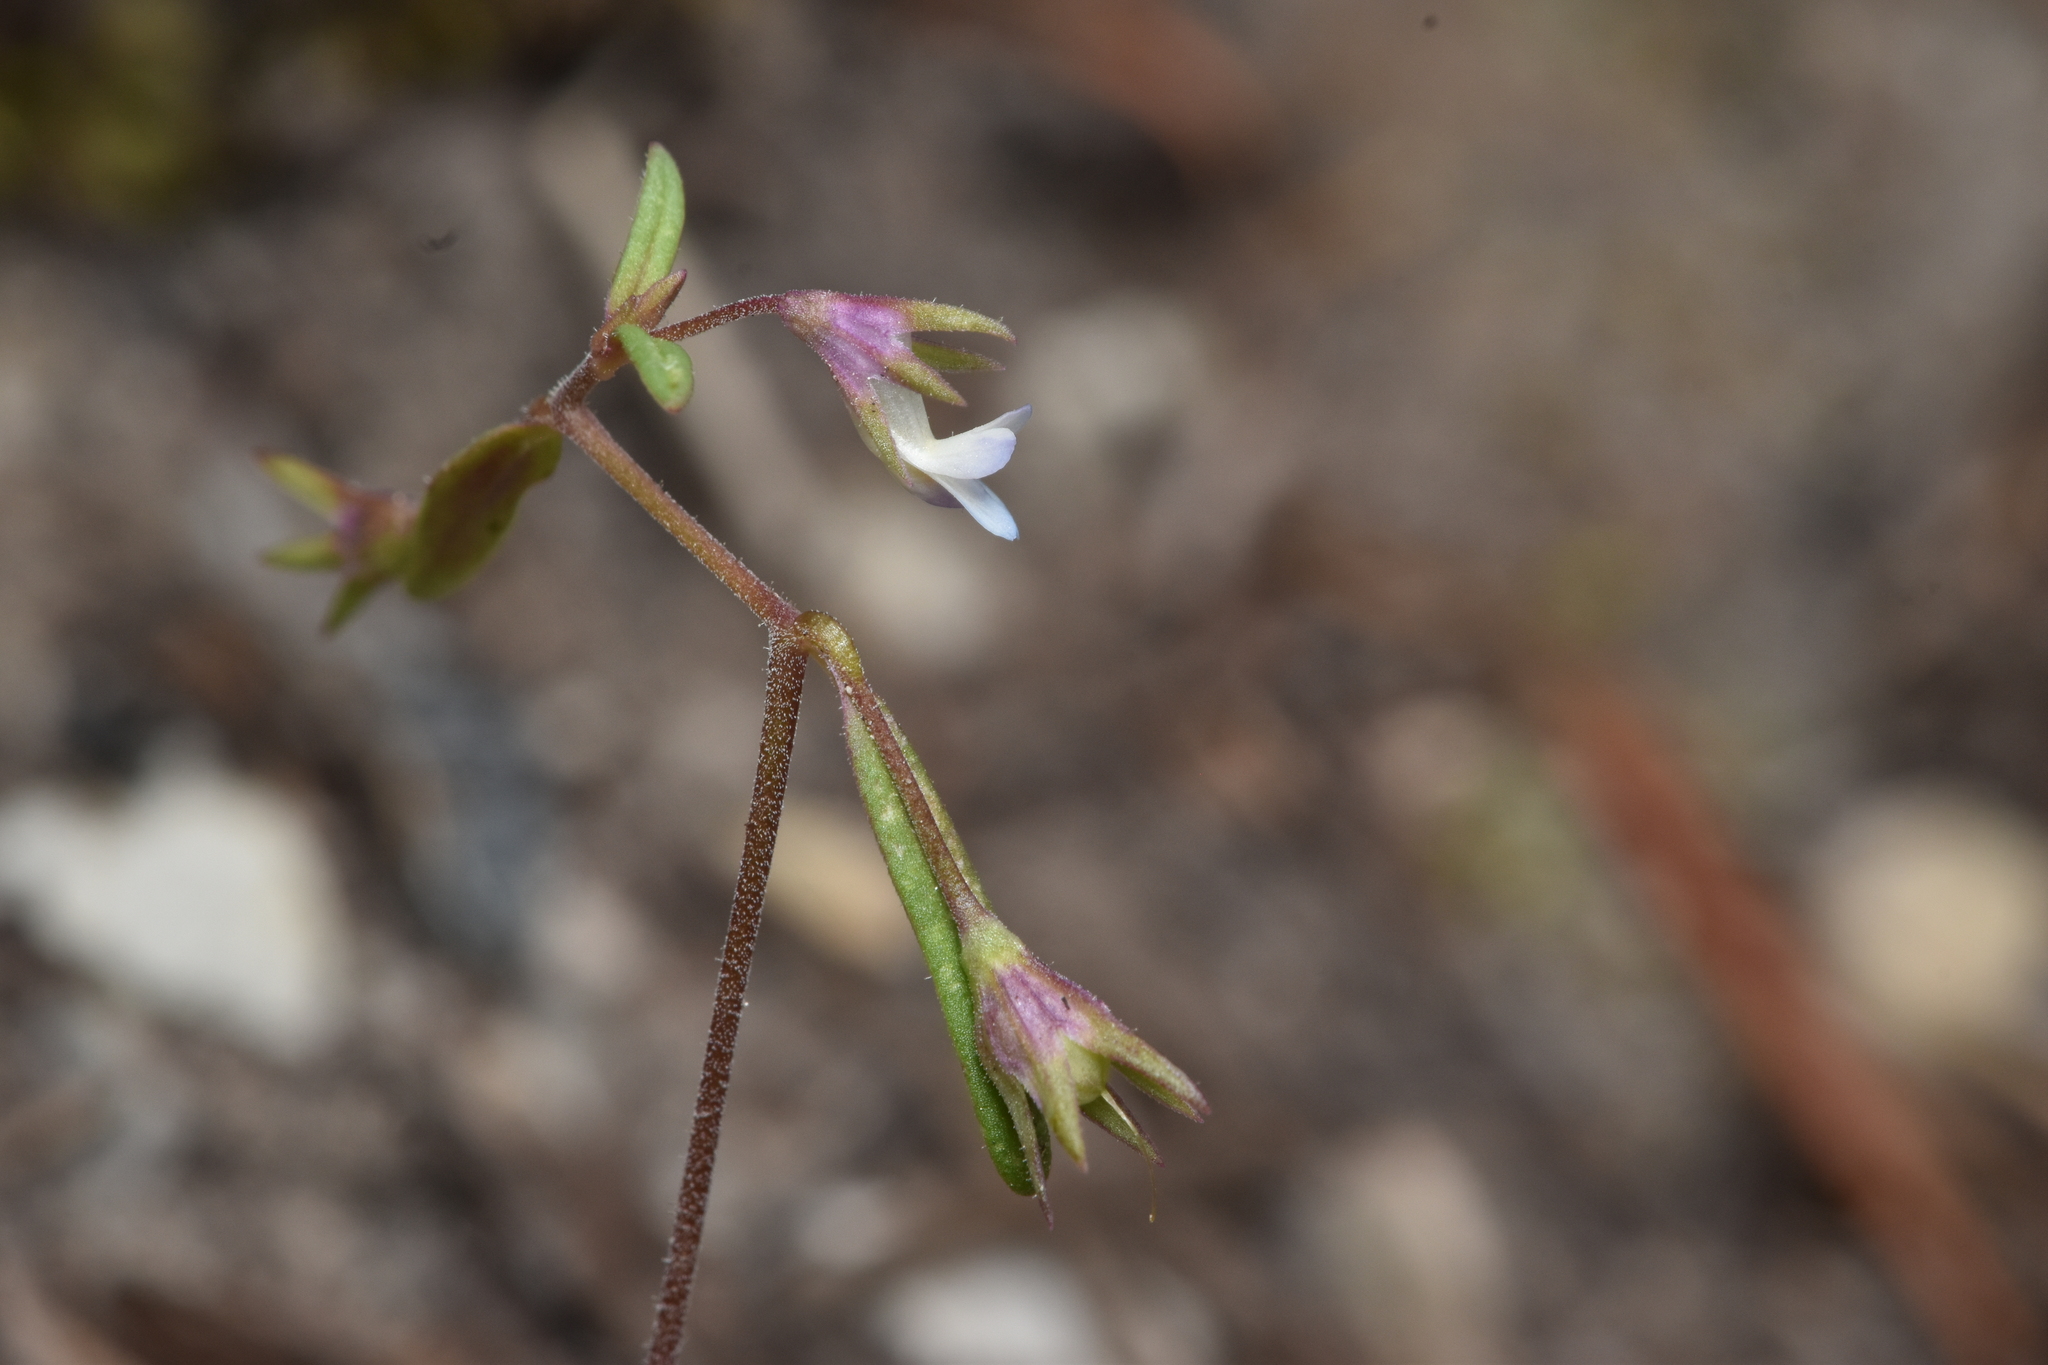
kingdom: Plantae
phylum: Tracheophyta
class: Magnoliopsida
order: Lamiales
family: Plantaginaceae
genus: Collinsia
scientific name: Collinsia parviflora
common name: Blue-lips
